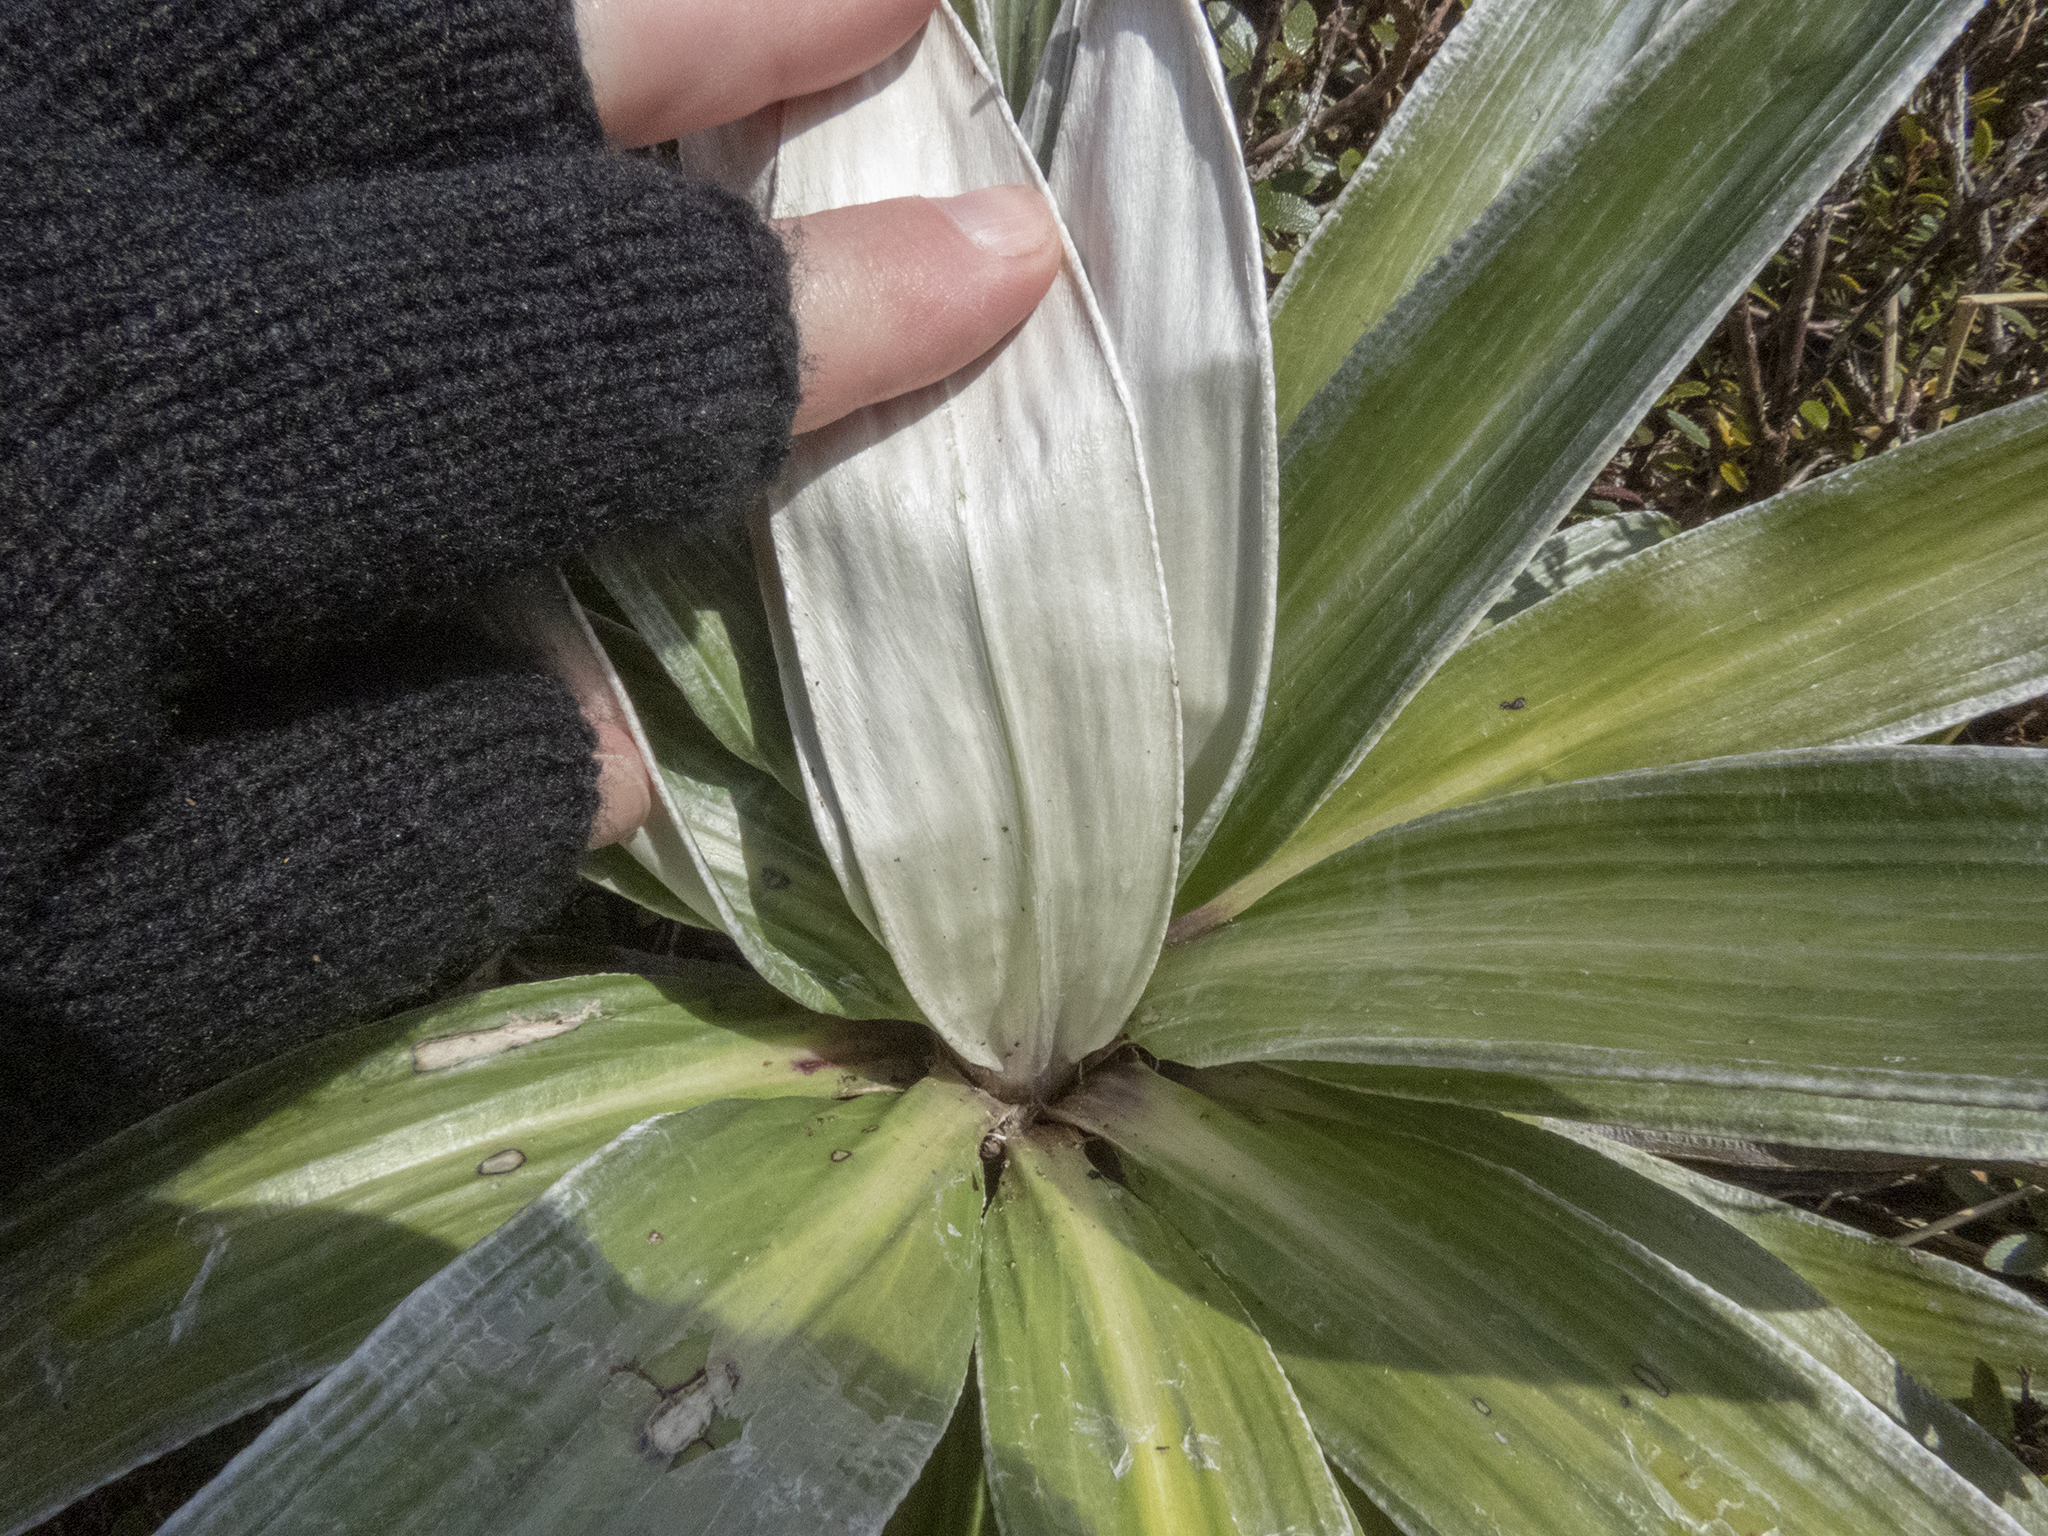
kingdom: Plantae
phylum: Tracheophyta
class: Magnoliopsida
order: Asterales
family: Asteraceae
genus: Celmisia
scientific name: Celmisia semicordata
